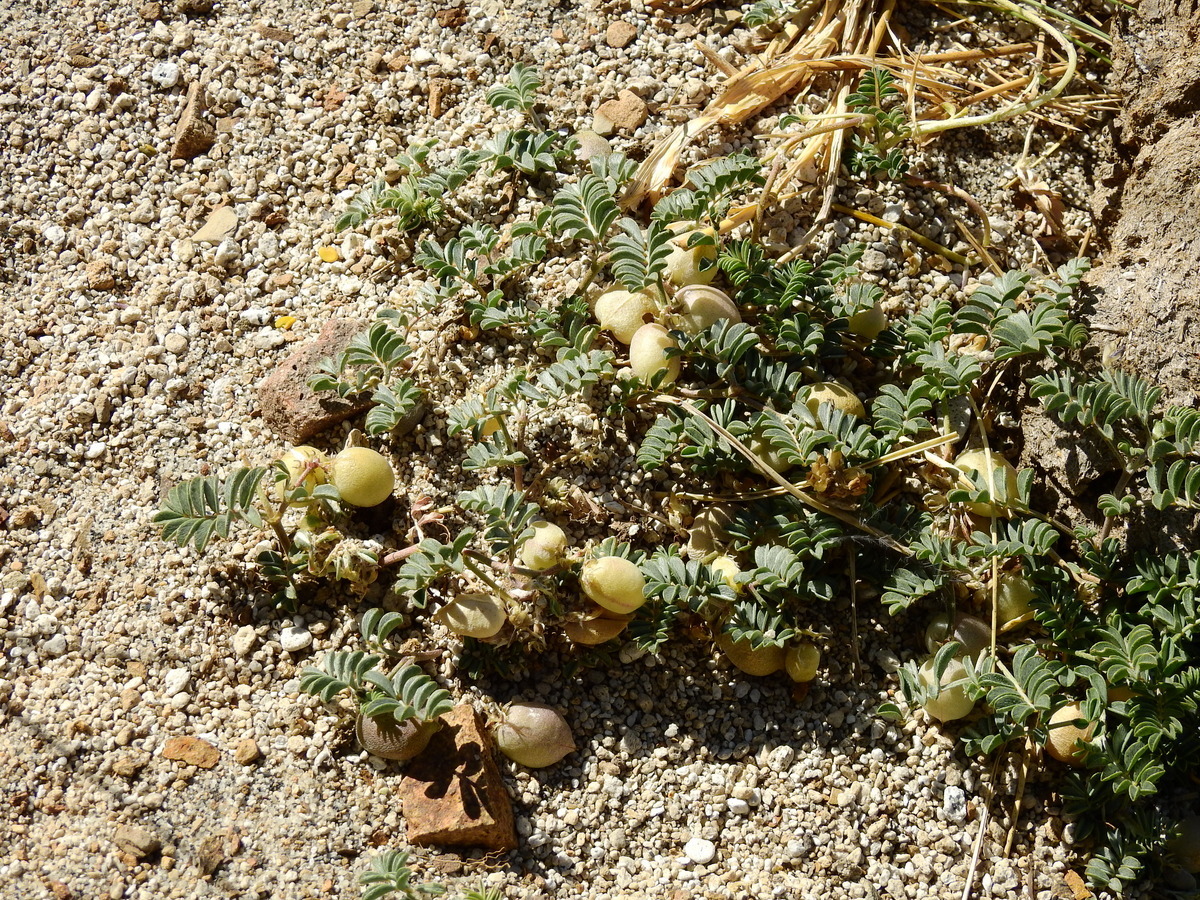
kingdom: Plantae
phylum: Tracheophyta
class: Magnoliopsida
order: Fabales
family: Fabaceae
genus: Astragalus
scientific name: Astragalus vesiculosus
